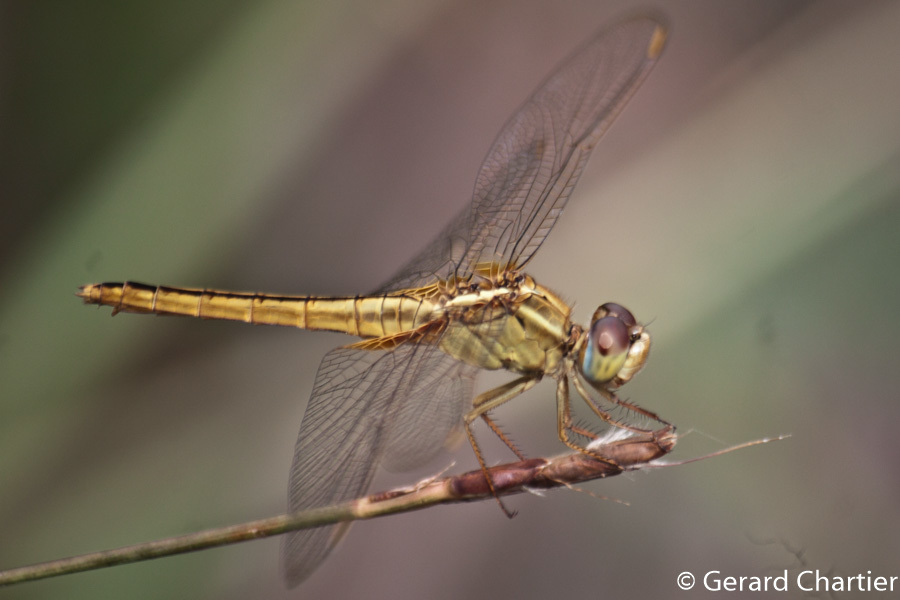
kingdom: Animalia
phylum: Arthropoda
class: Insecta
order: Odonata
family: Libellulidae
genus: Crocothemis
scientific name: Crocothemis servilia
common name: Scarlet skimmer
